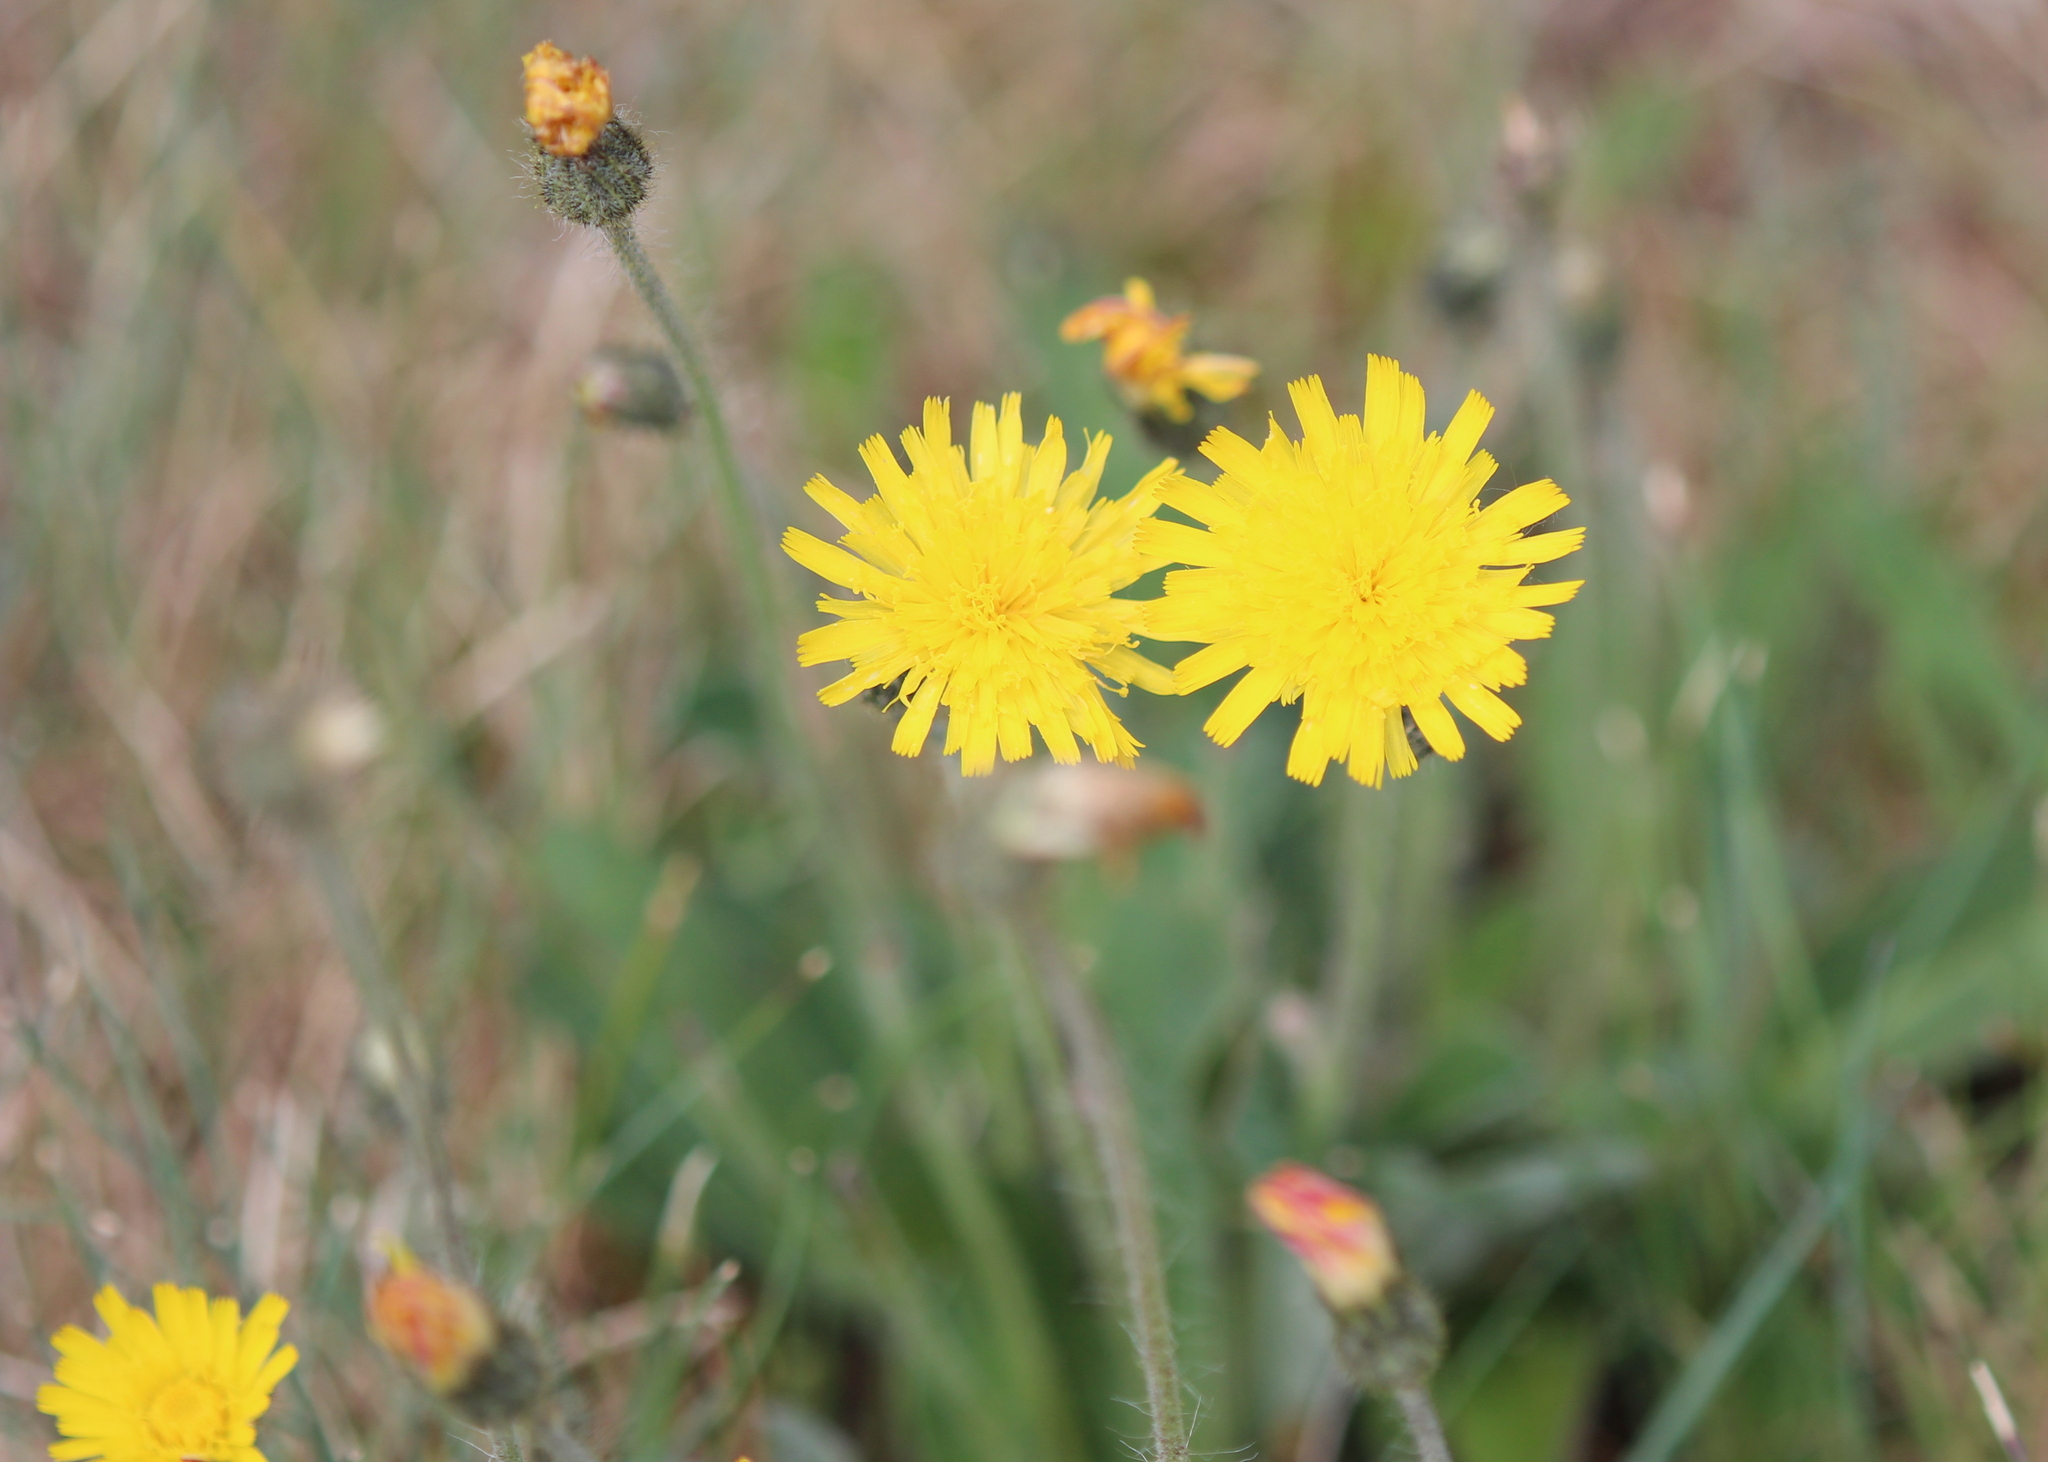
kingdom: Plantae
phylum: Tracheophyta
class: Magnoliopsida
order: Asterales
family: Asteraceae
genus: Pilosella
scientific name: Pilosella officinarum
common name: Mouse-ear hawkweed
